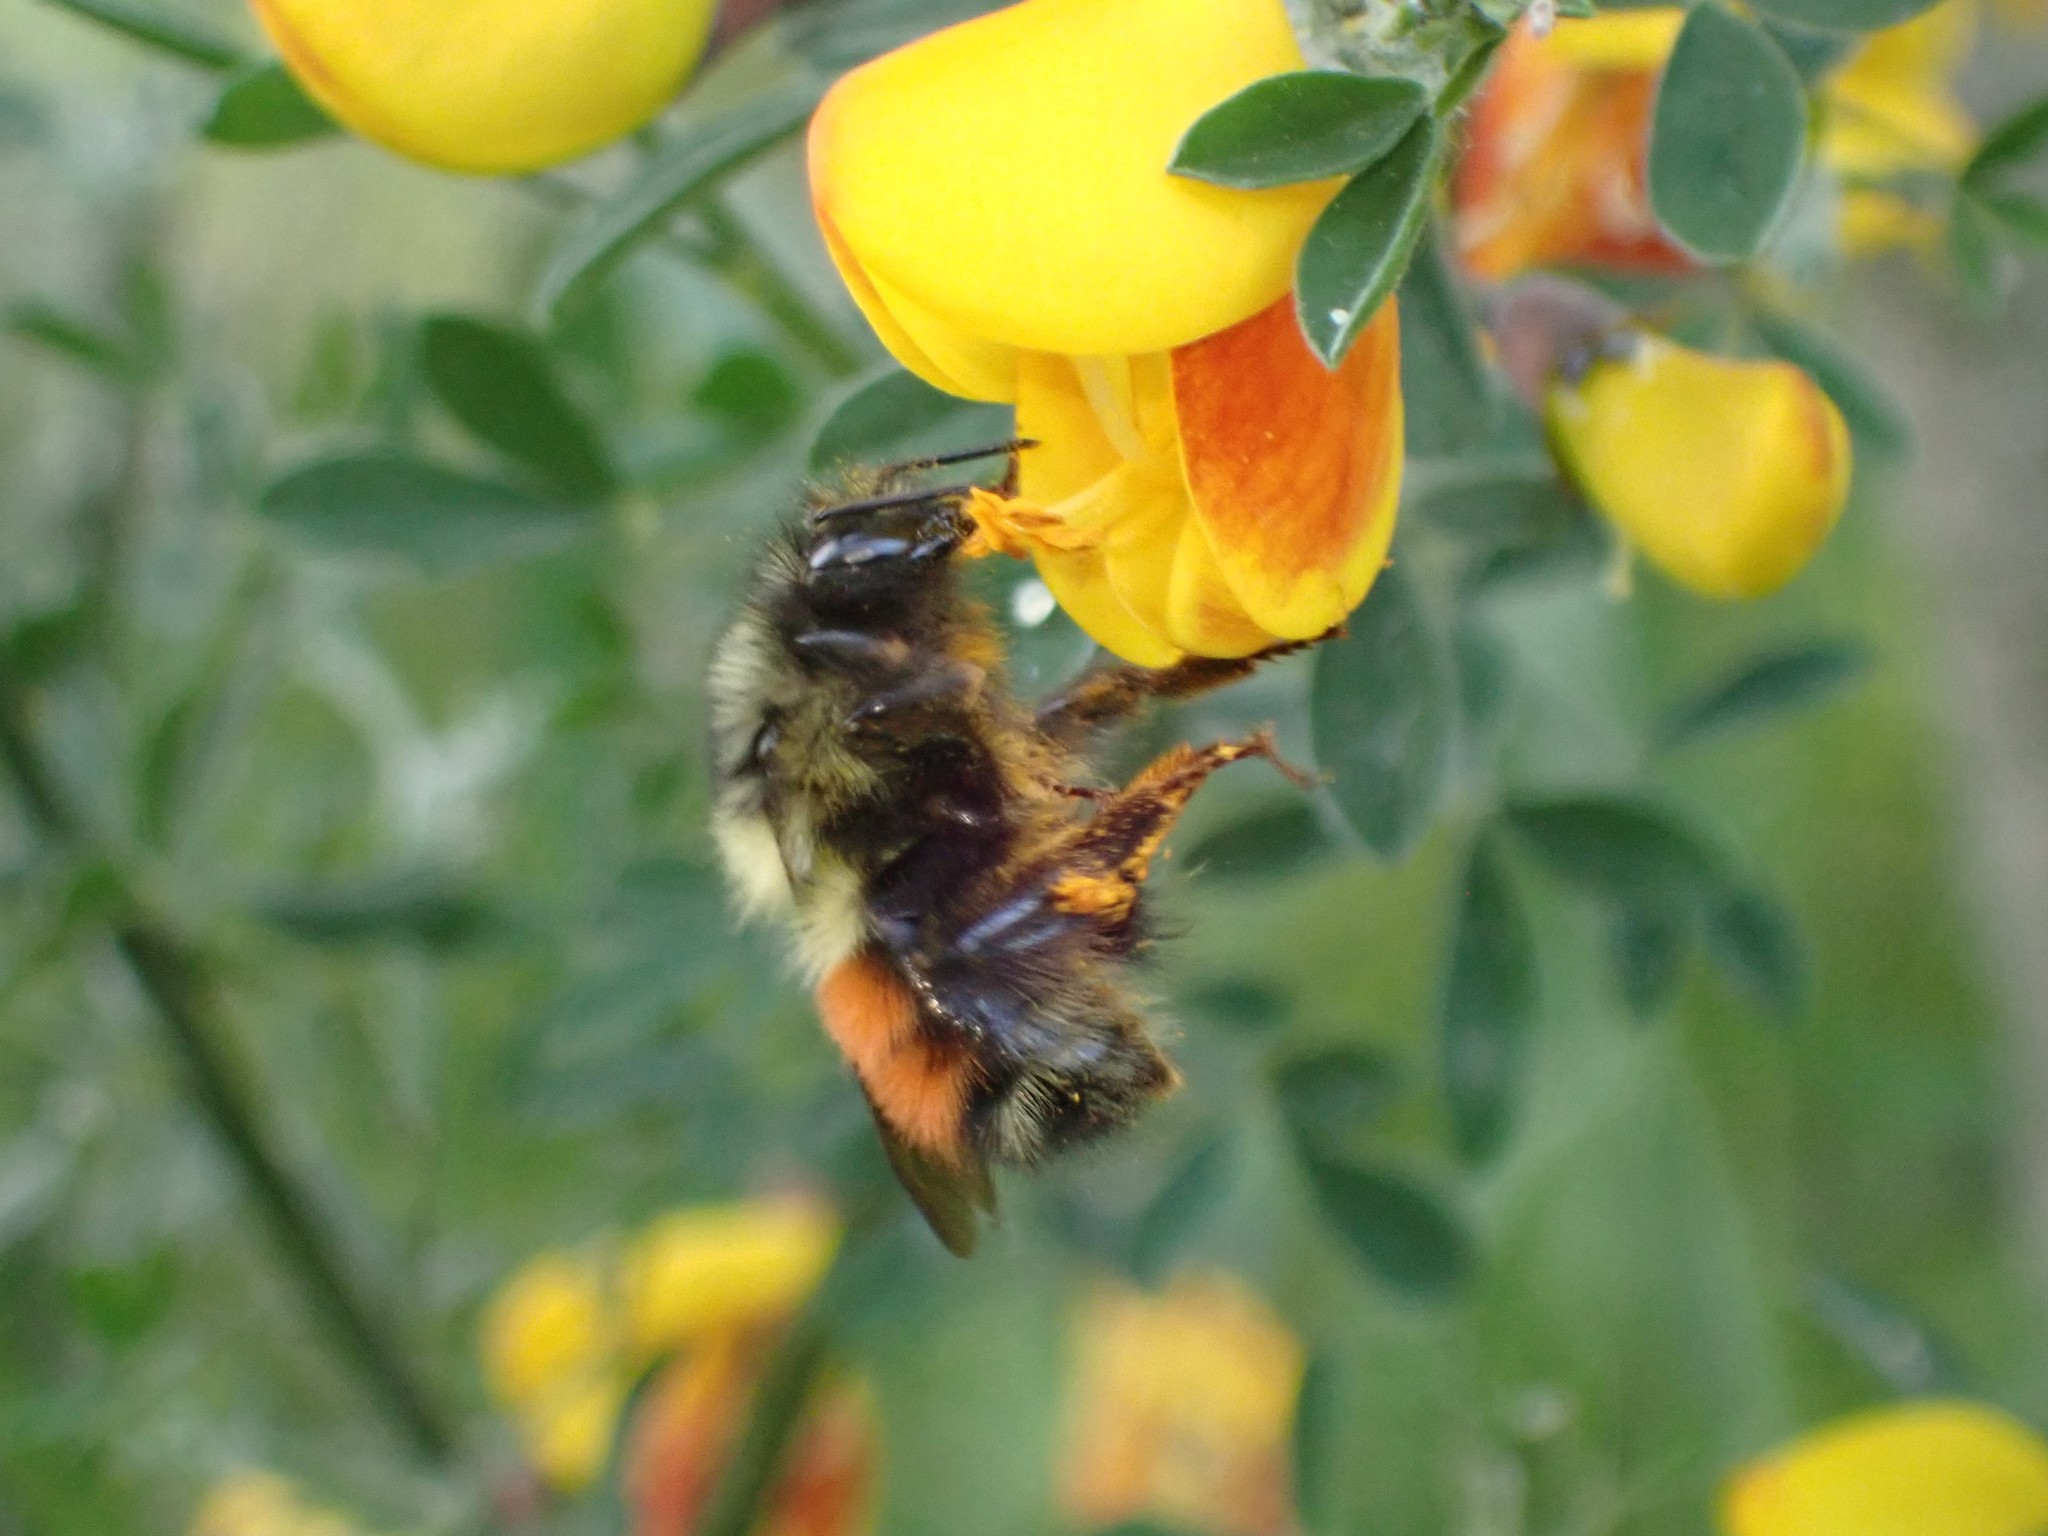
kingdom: Animalia
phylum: Arthropoda
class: Insecta
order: Hymenoptera
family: Apidae
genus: Bombus
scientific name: Bombus melanopygus
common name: Black tail bumble bee
